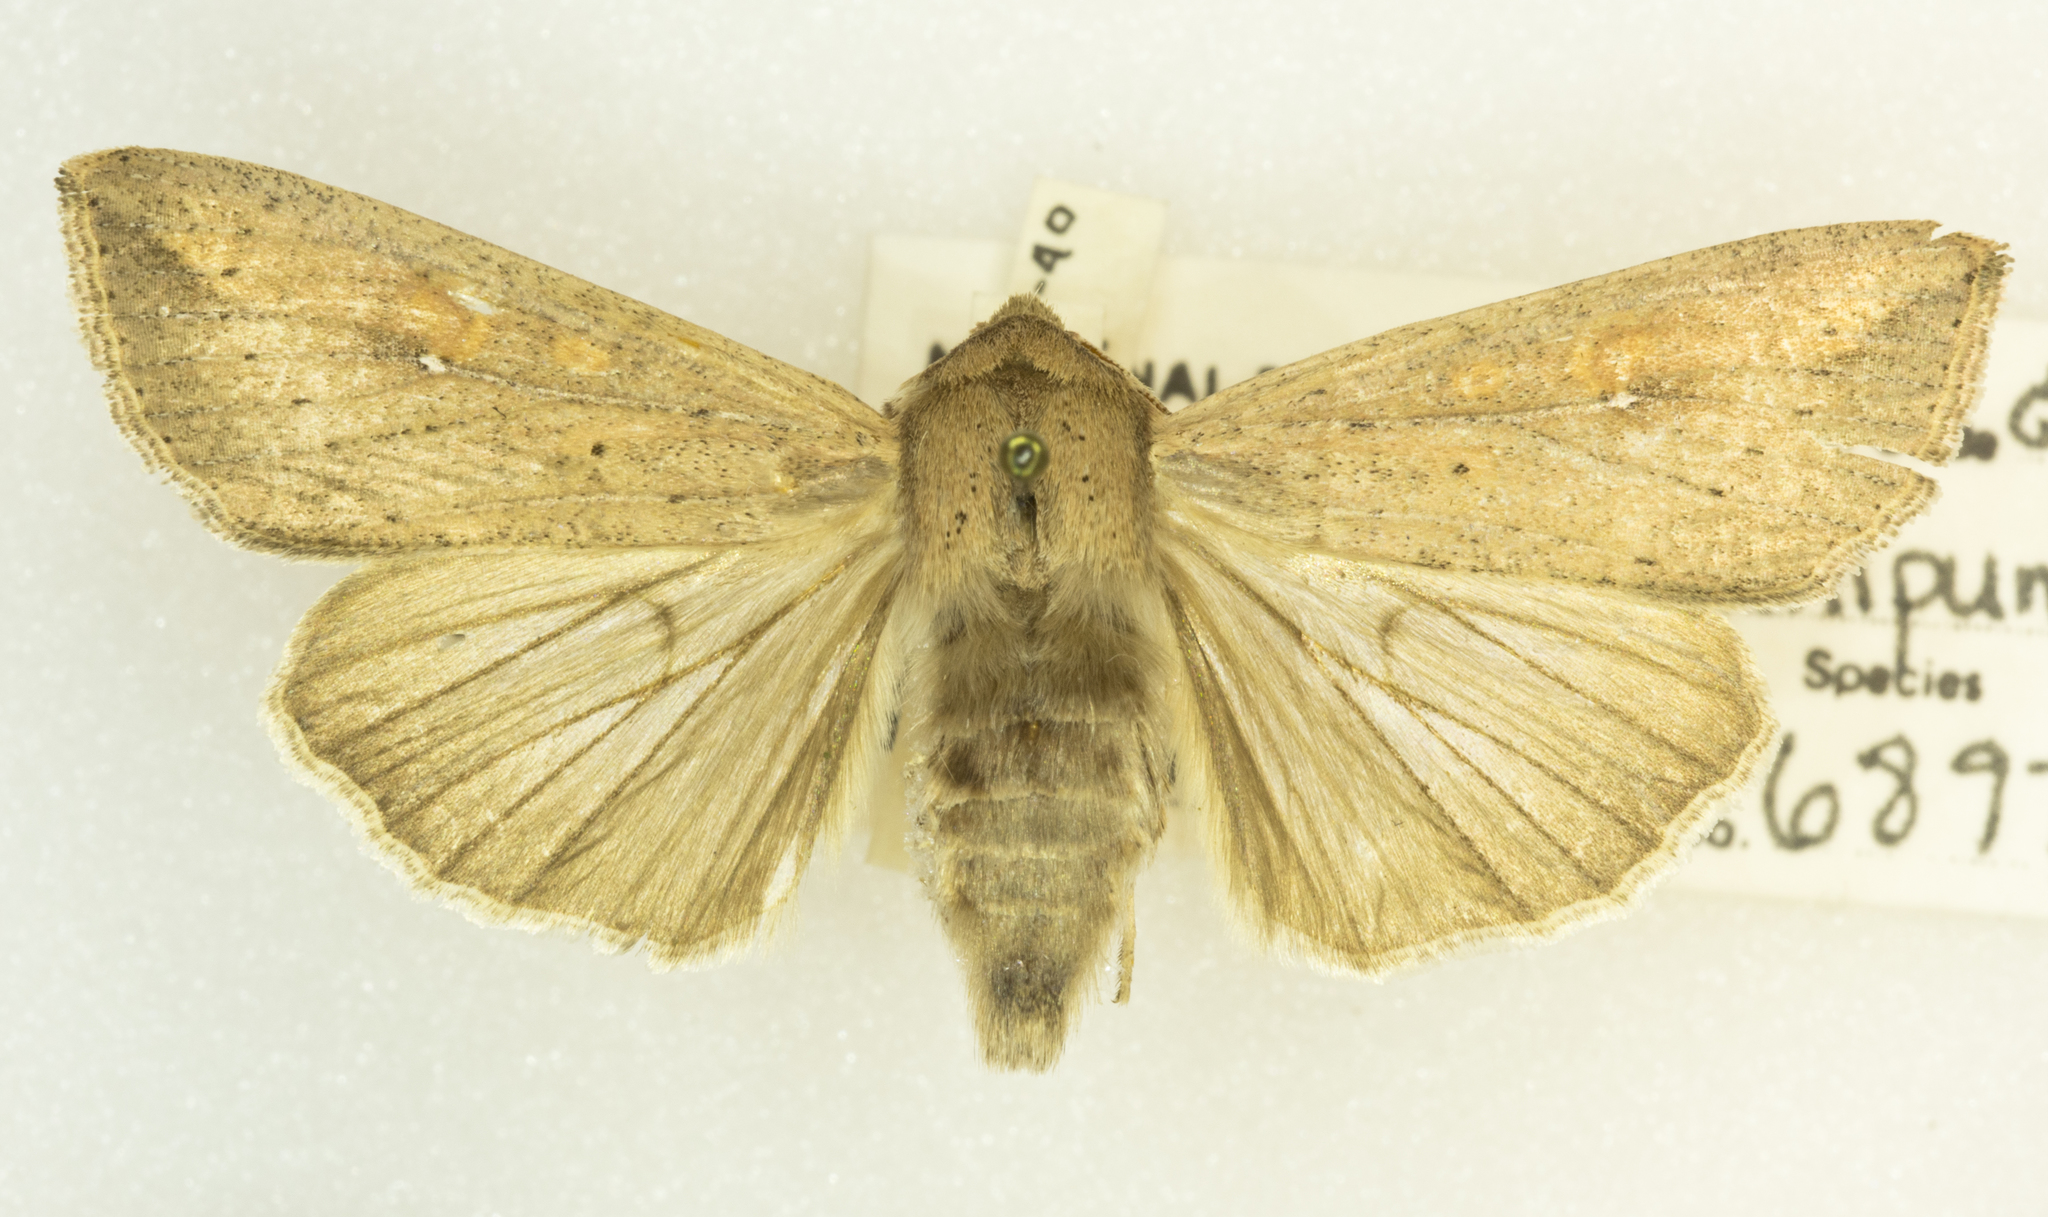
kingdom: Animalia
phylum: Arthropoda
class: Insecta
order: Lepidoptera
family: Noctuidae
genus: Mythimna
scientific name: Mythimna unipuncta
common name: White-speck
